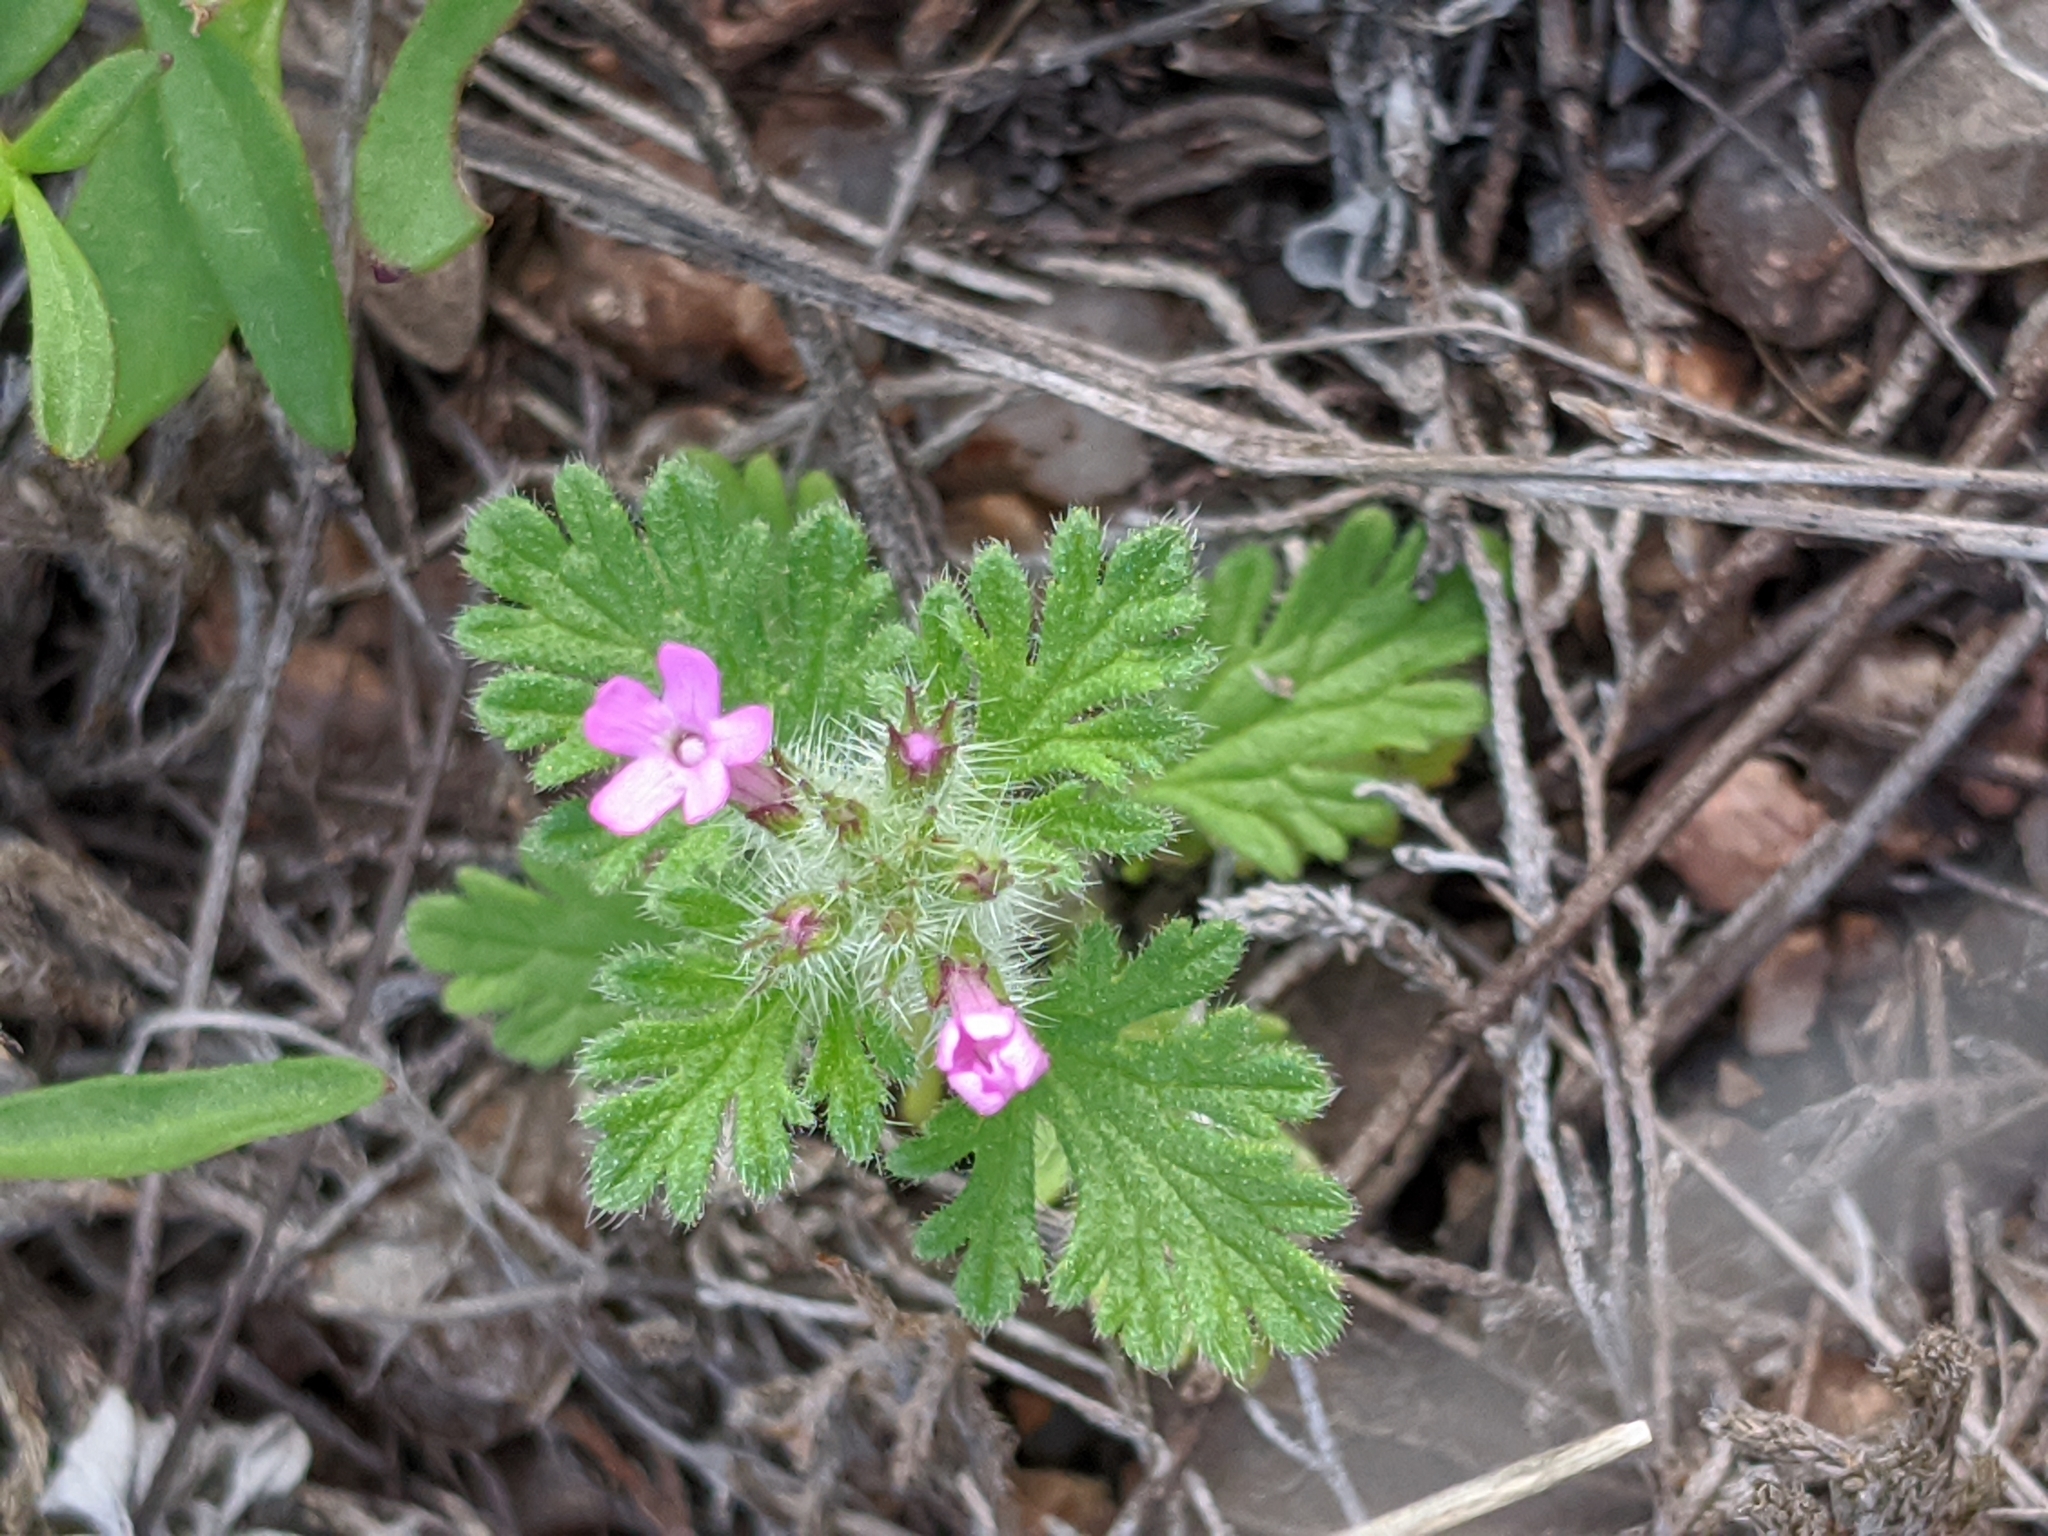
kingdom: Plantae
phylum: Tracheophyta
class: Magnoliopsida
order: Lamiales
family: Verbenaceae
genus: Verbena
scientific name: Verbena pumila
